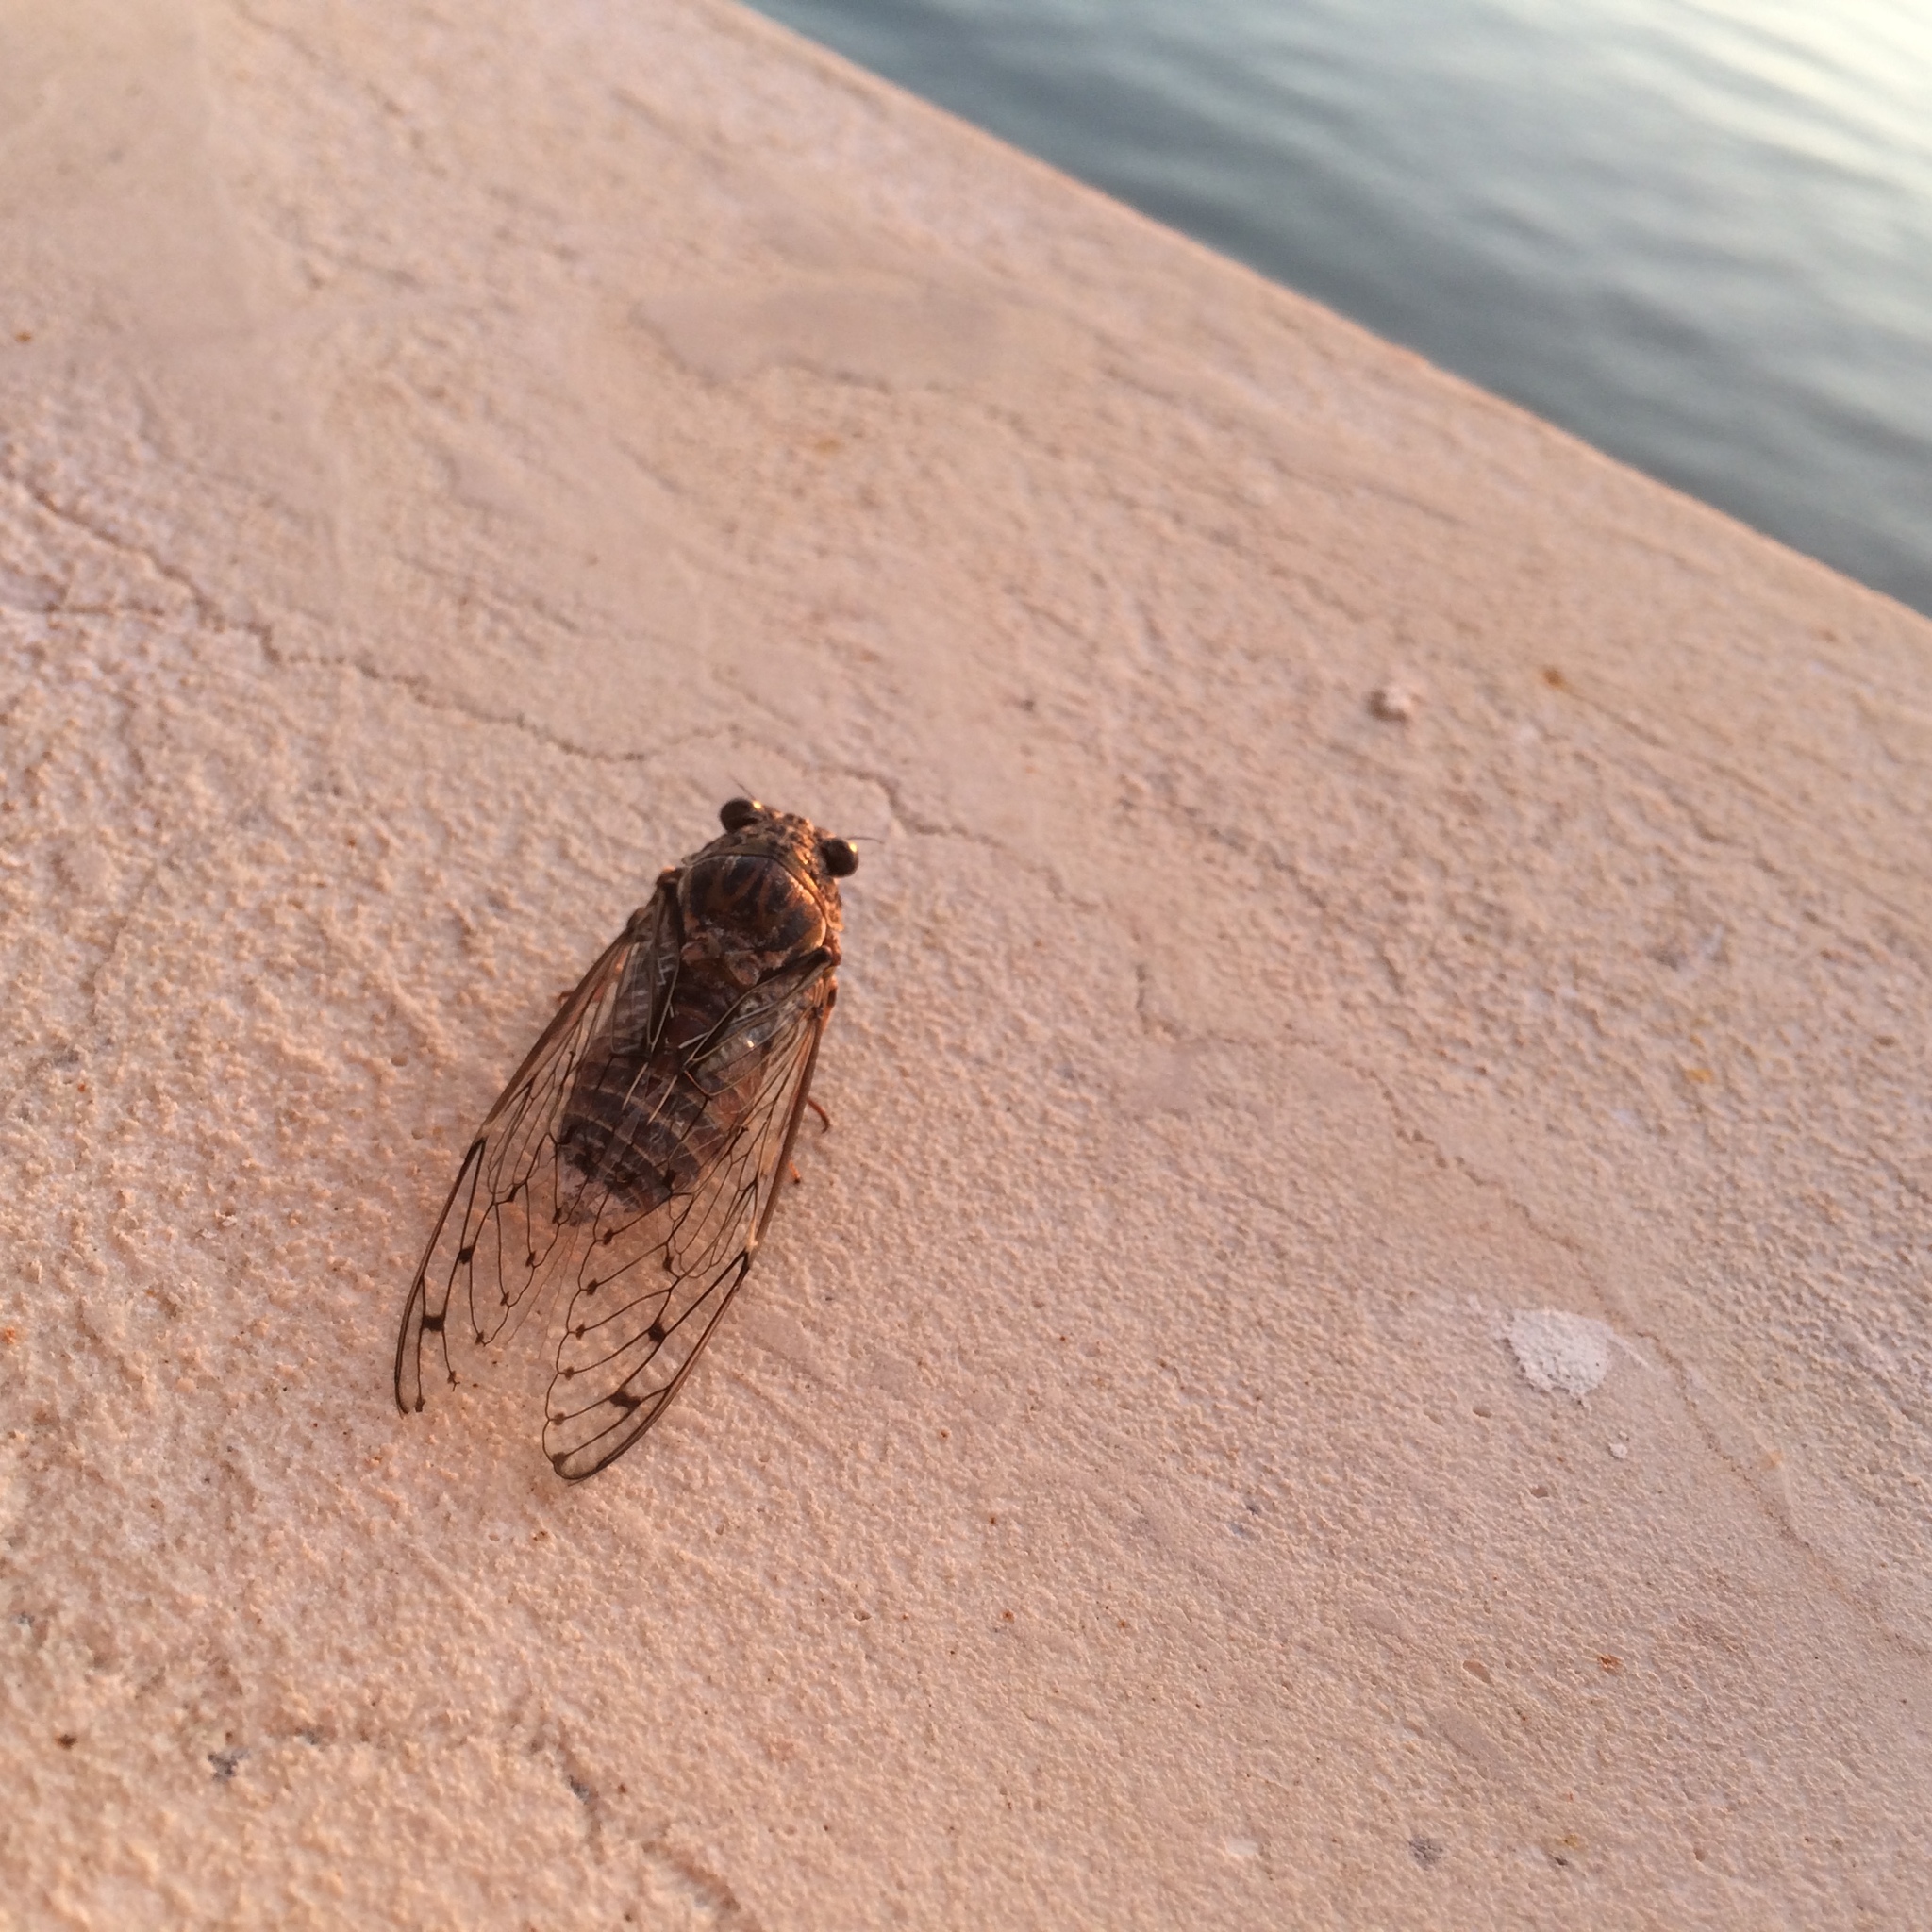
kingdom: Animalia
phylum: Arthropoda
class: Insecta
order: Hemiptera
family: Cicadidae
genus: Cicada
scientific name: Cicada mordoganensis
